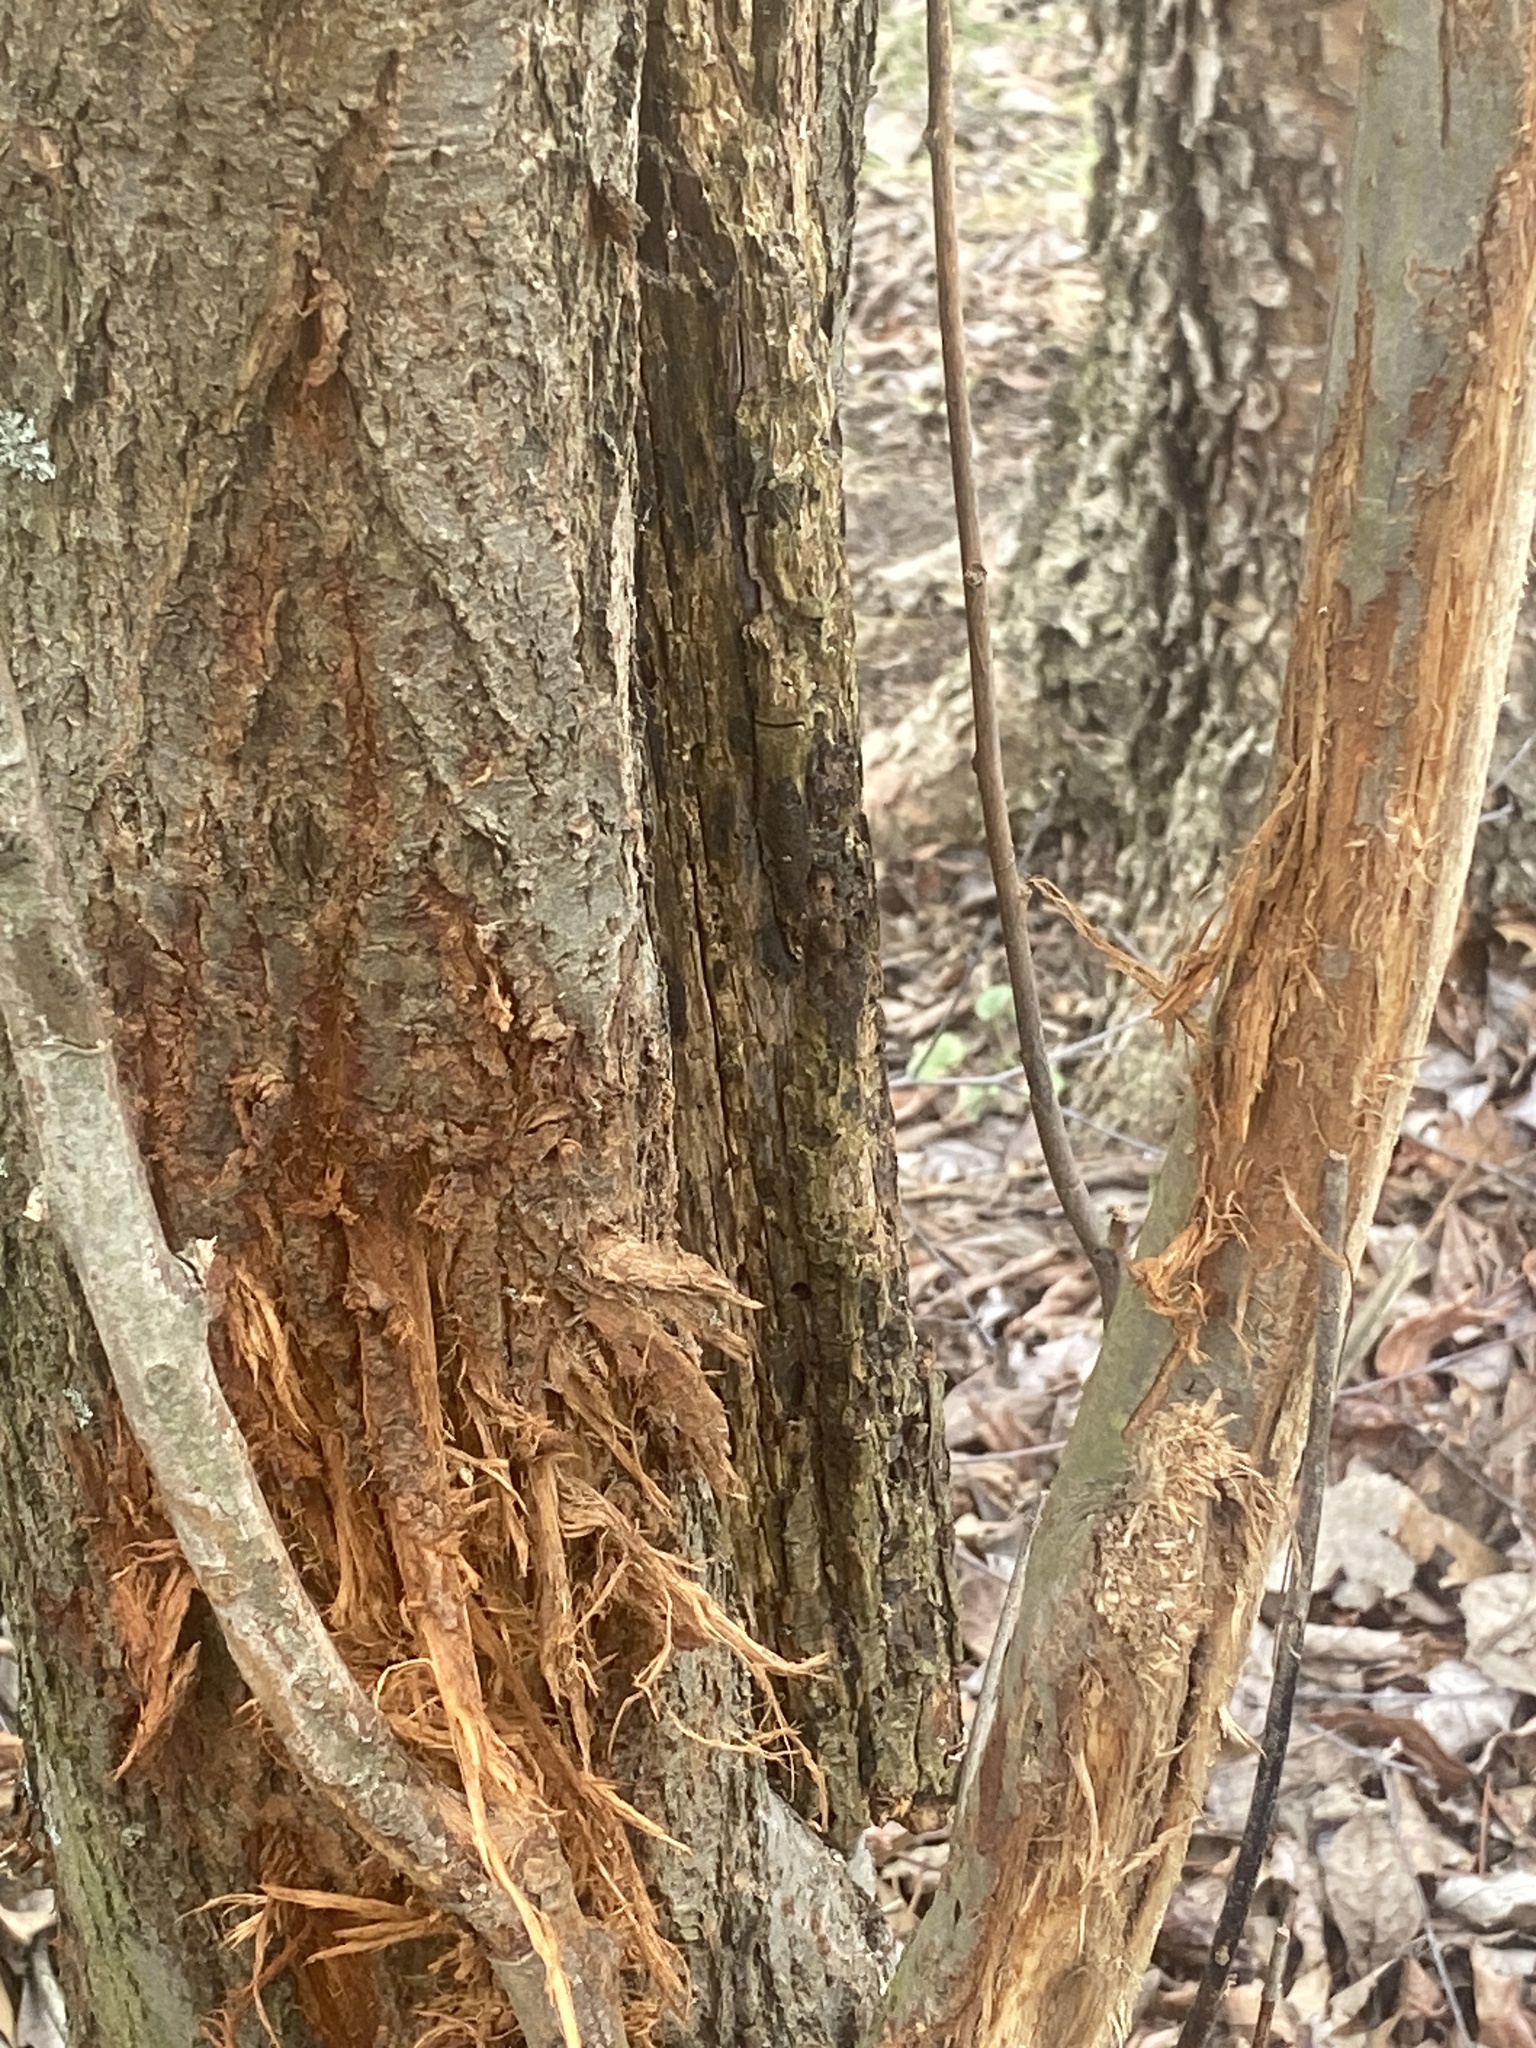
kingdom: Animalia
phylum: Chordata
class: Mammalia
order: Artiodactyla
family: Cervidae
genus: Odocoileus
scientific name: Odocoileus virginianus
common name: White-tailed deer
